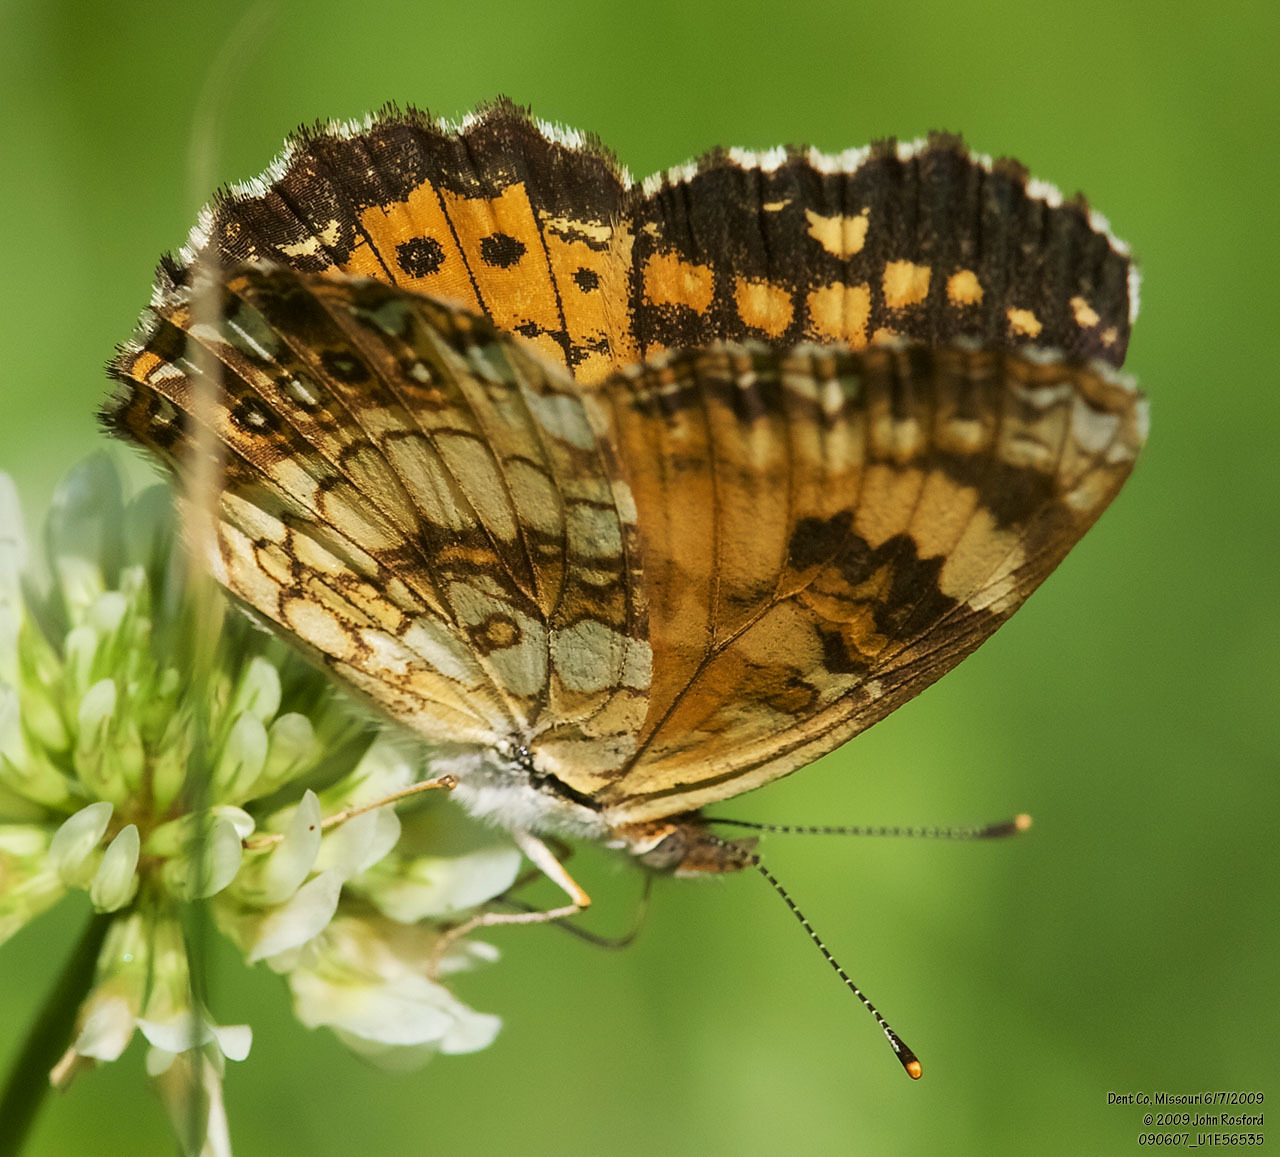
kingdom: Animalia
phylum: Arthropoda
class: Insecta
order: Lepidoptera
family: Nymphalidae
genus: Chlosyne
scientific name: Chlosyne nycteis
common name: Silvery checkerspot
